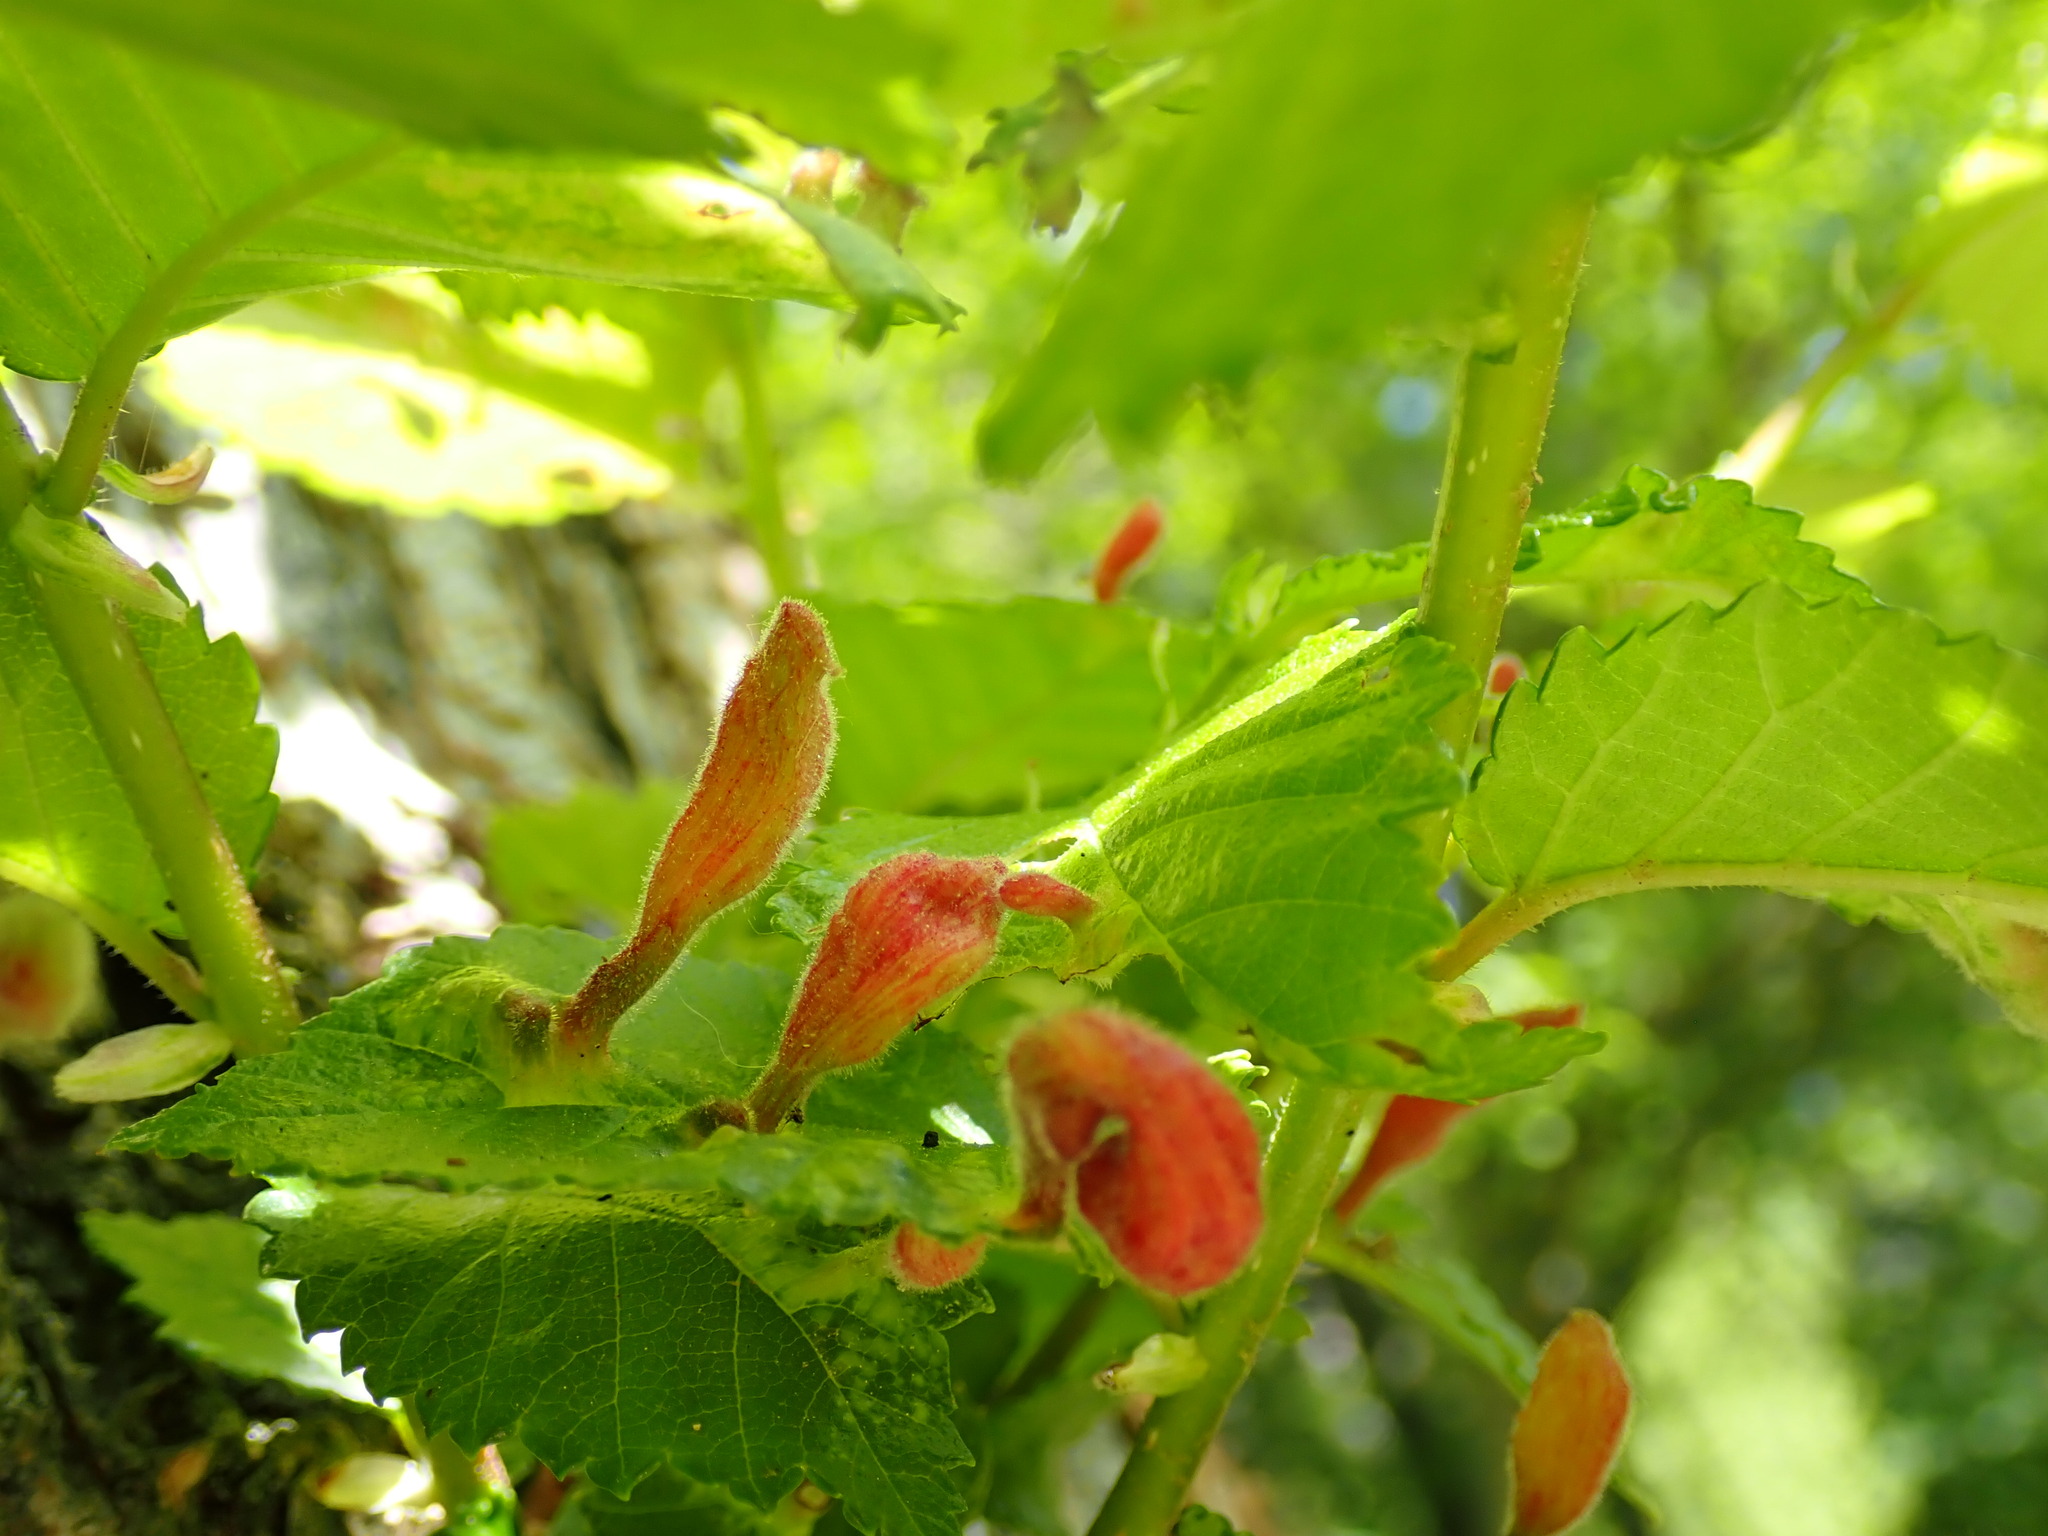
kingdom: Animalia
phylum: Arthropoda
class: Insecta
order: Hemiptera
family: Aphididae
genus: Tetraneura
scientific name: Tetraneura nigriabdominalis
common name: Aphid
